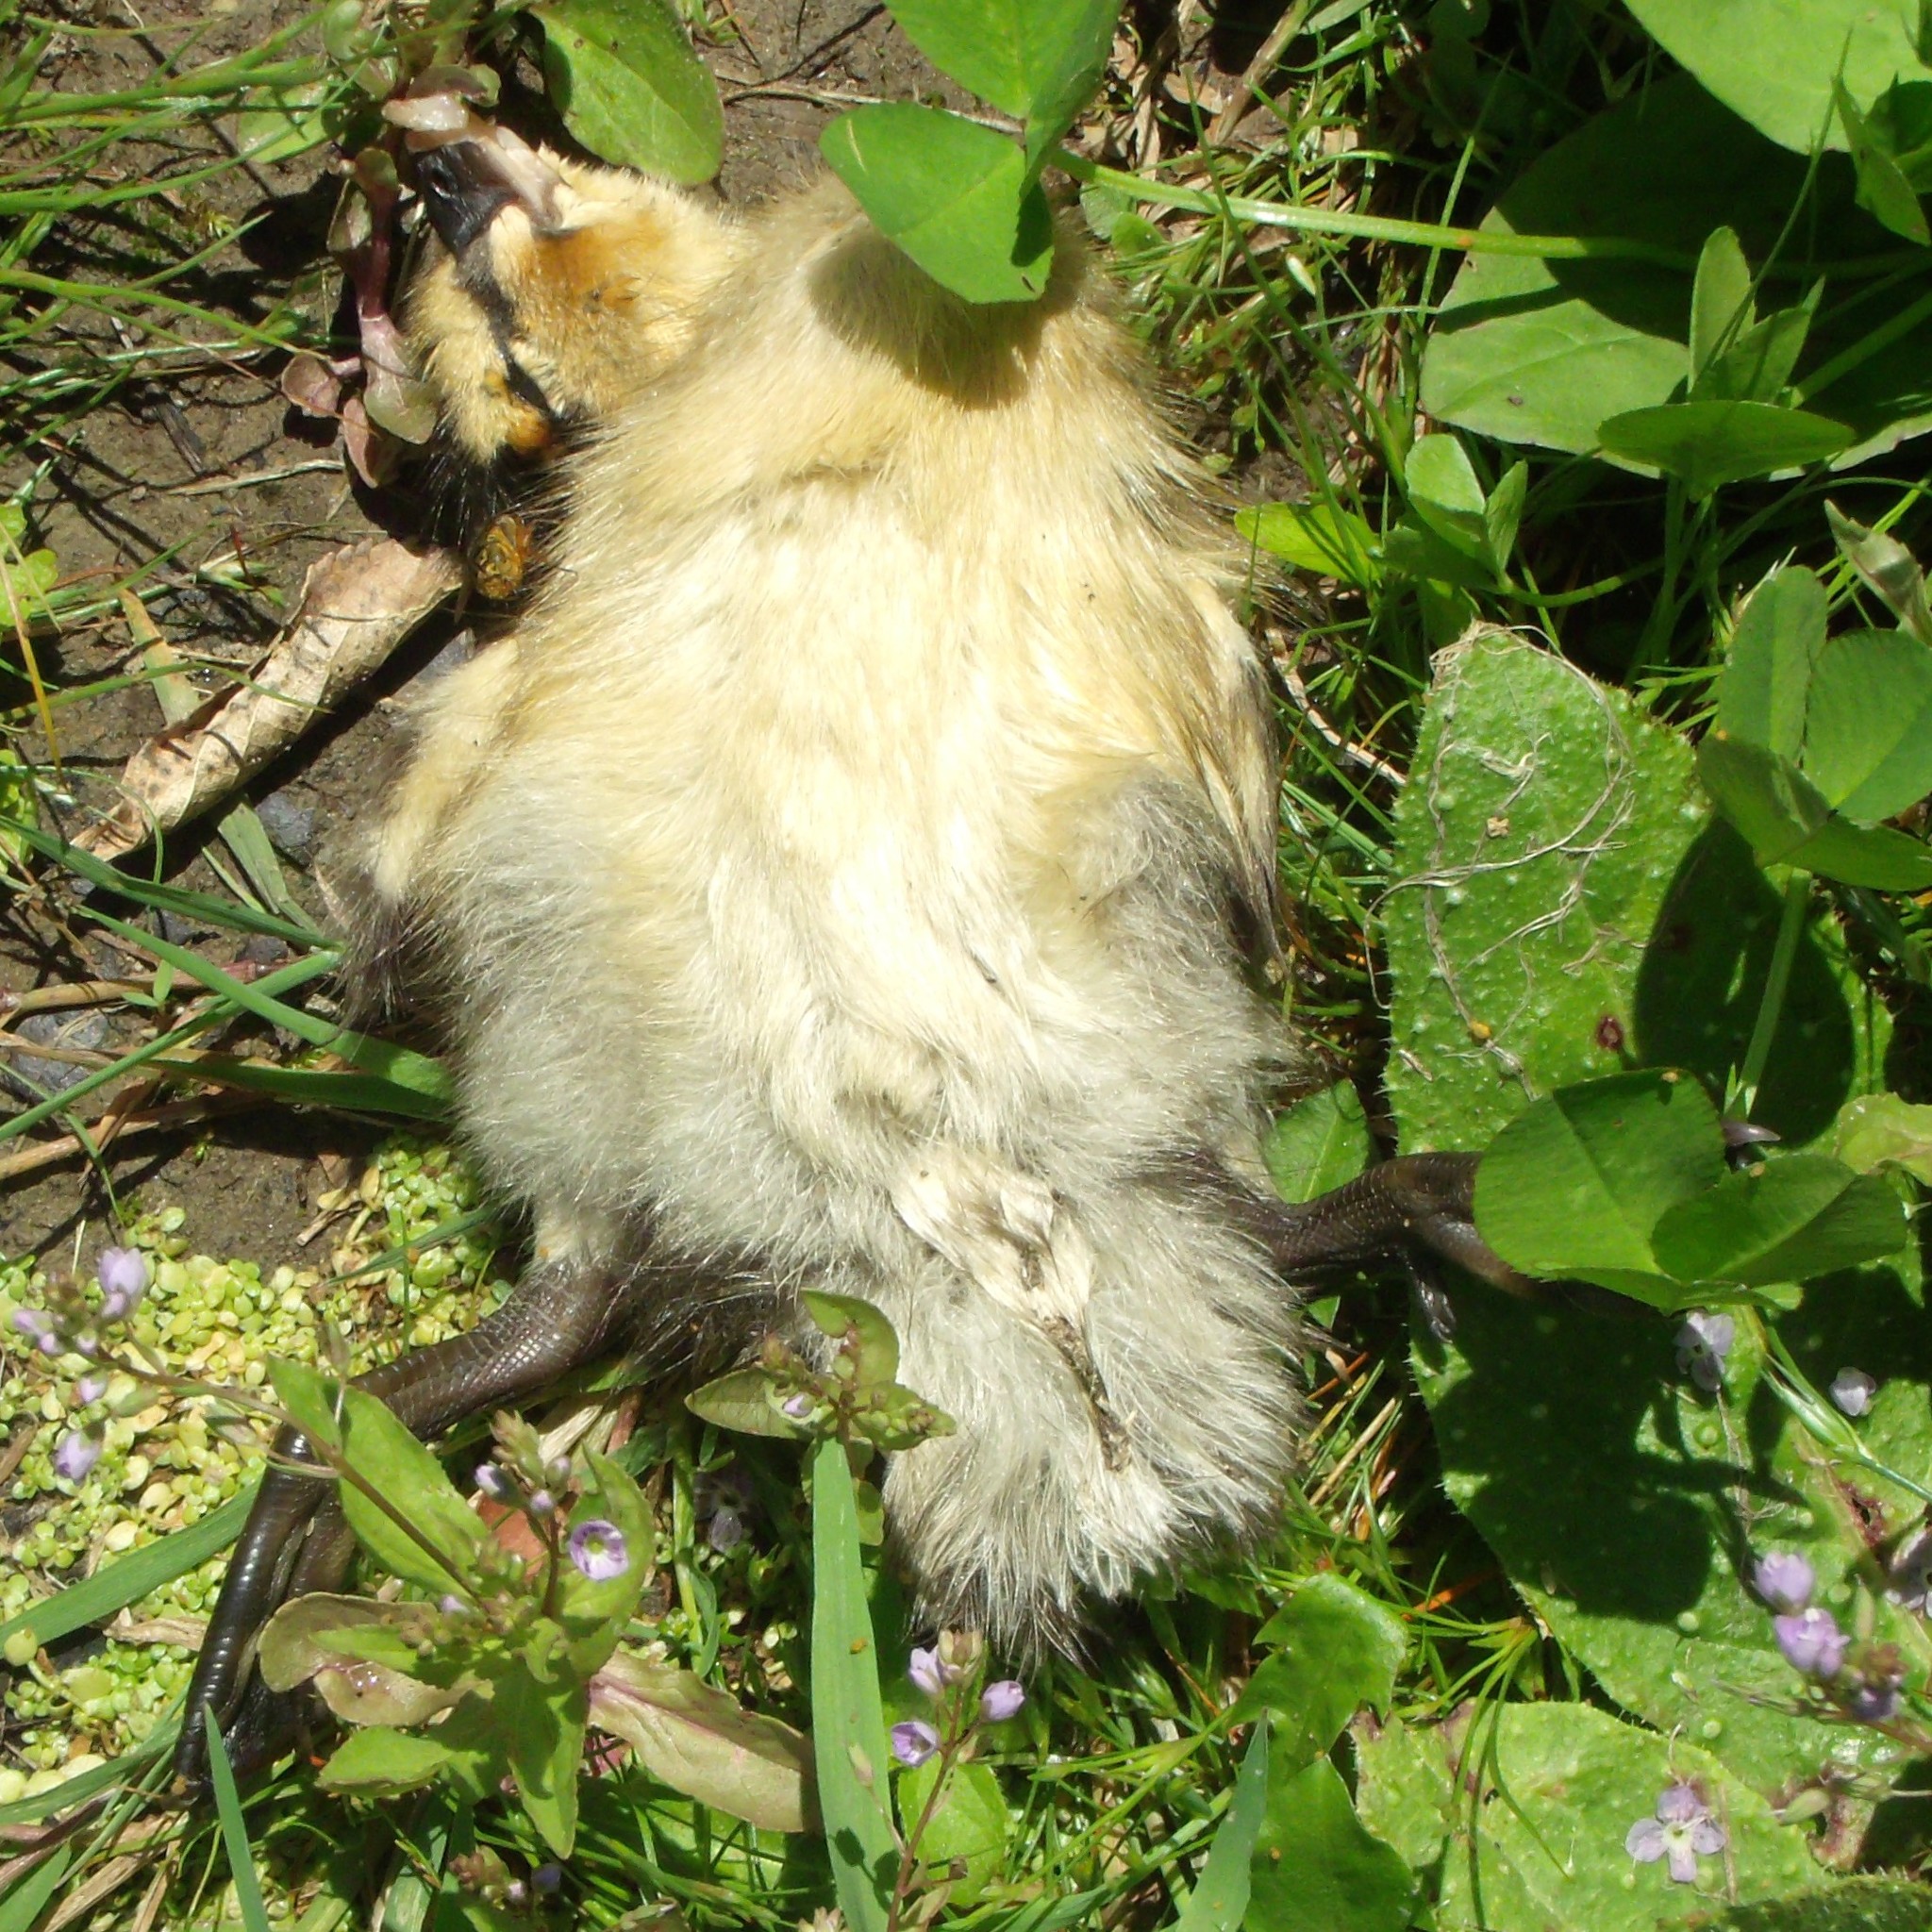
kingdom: Animalia
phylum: Chordata
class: Aves
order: Anseriformes
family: Anatidae
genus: Anas
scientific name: Anas platyrhynchos
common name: Mallard
